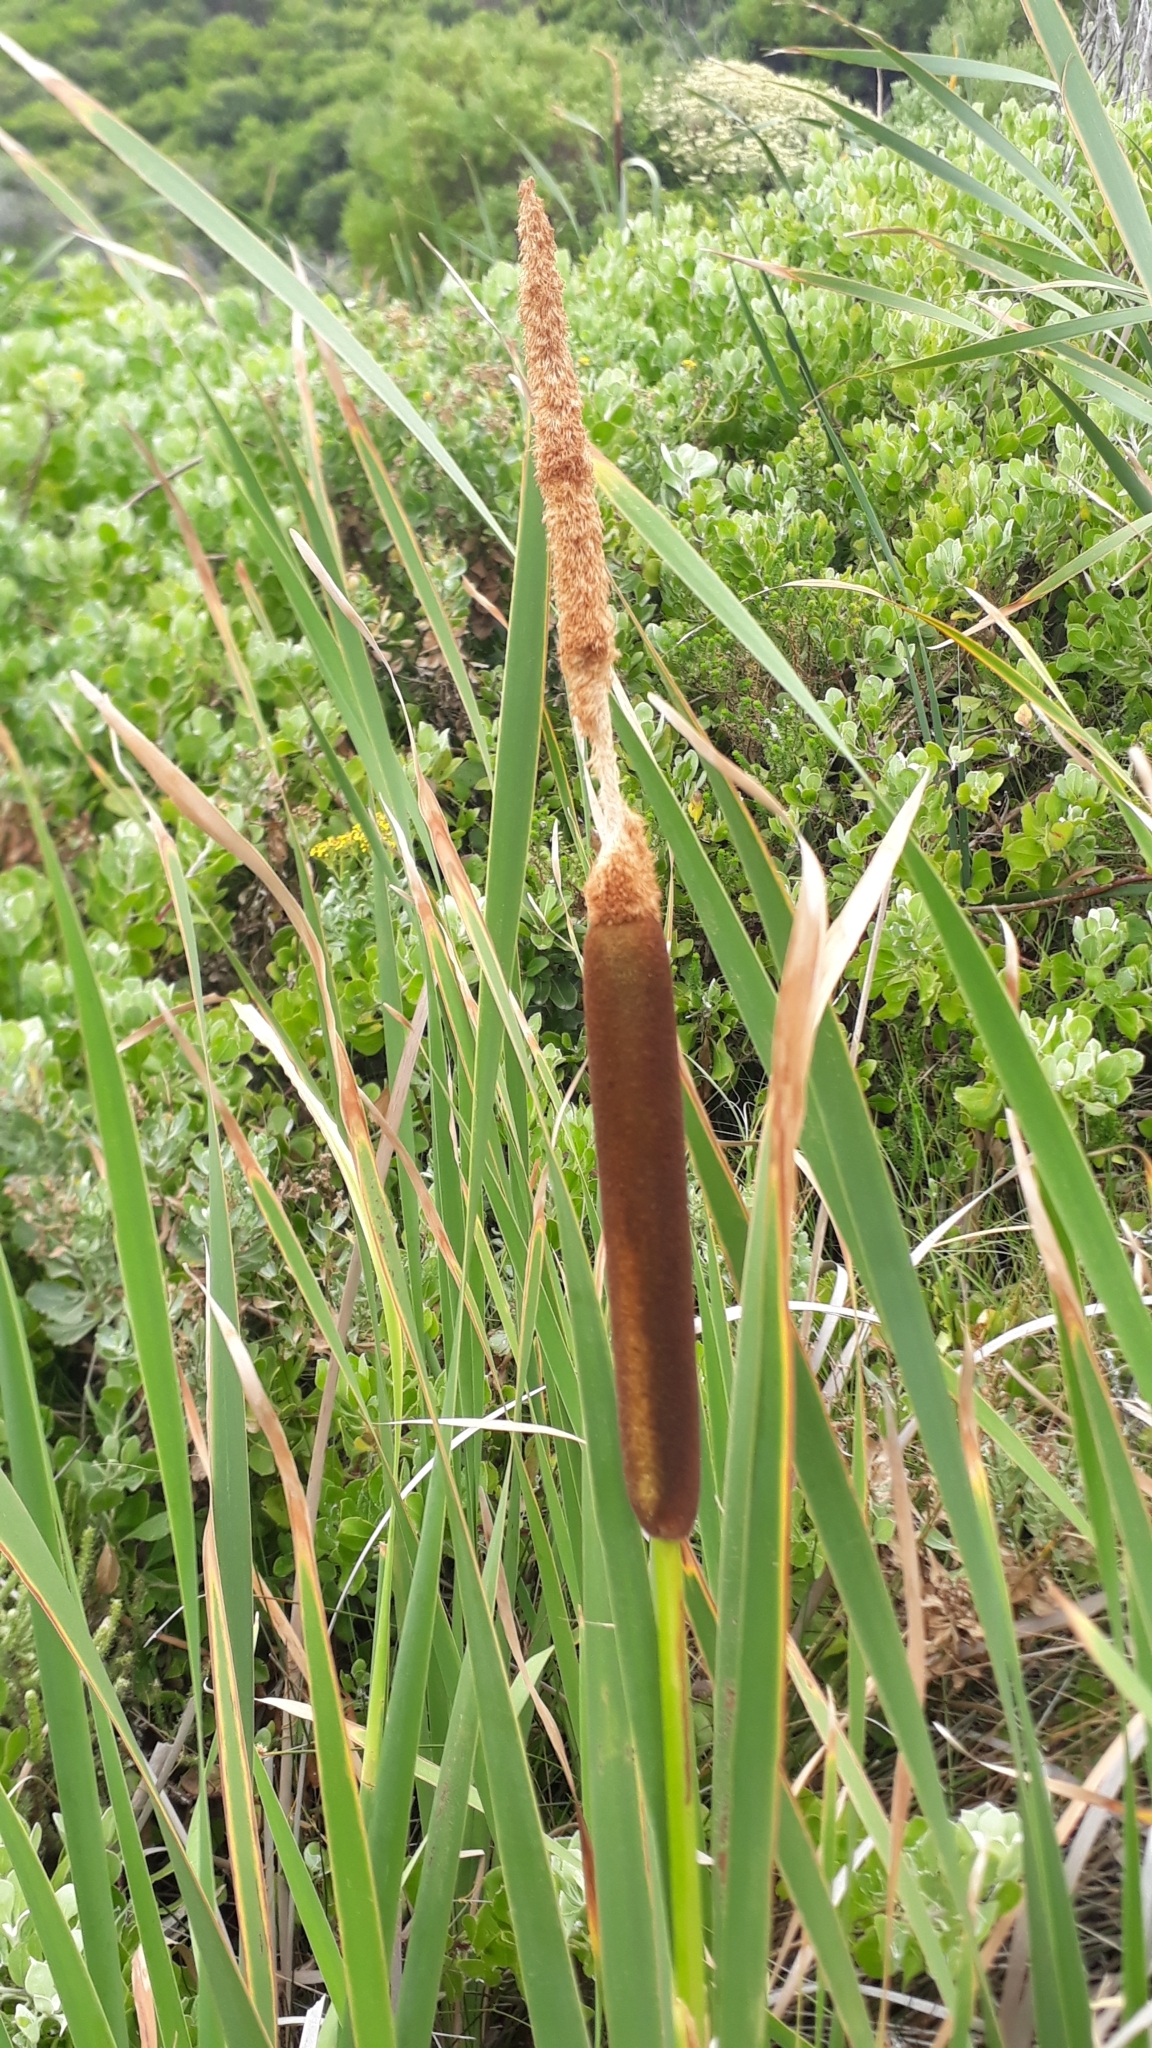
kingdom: Plantae
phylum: Tracheophyta
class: Liliopsida
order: Poales
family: Typhaceae
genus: Typha
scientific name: Typha capensis
